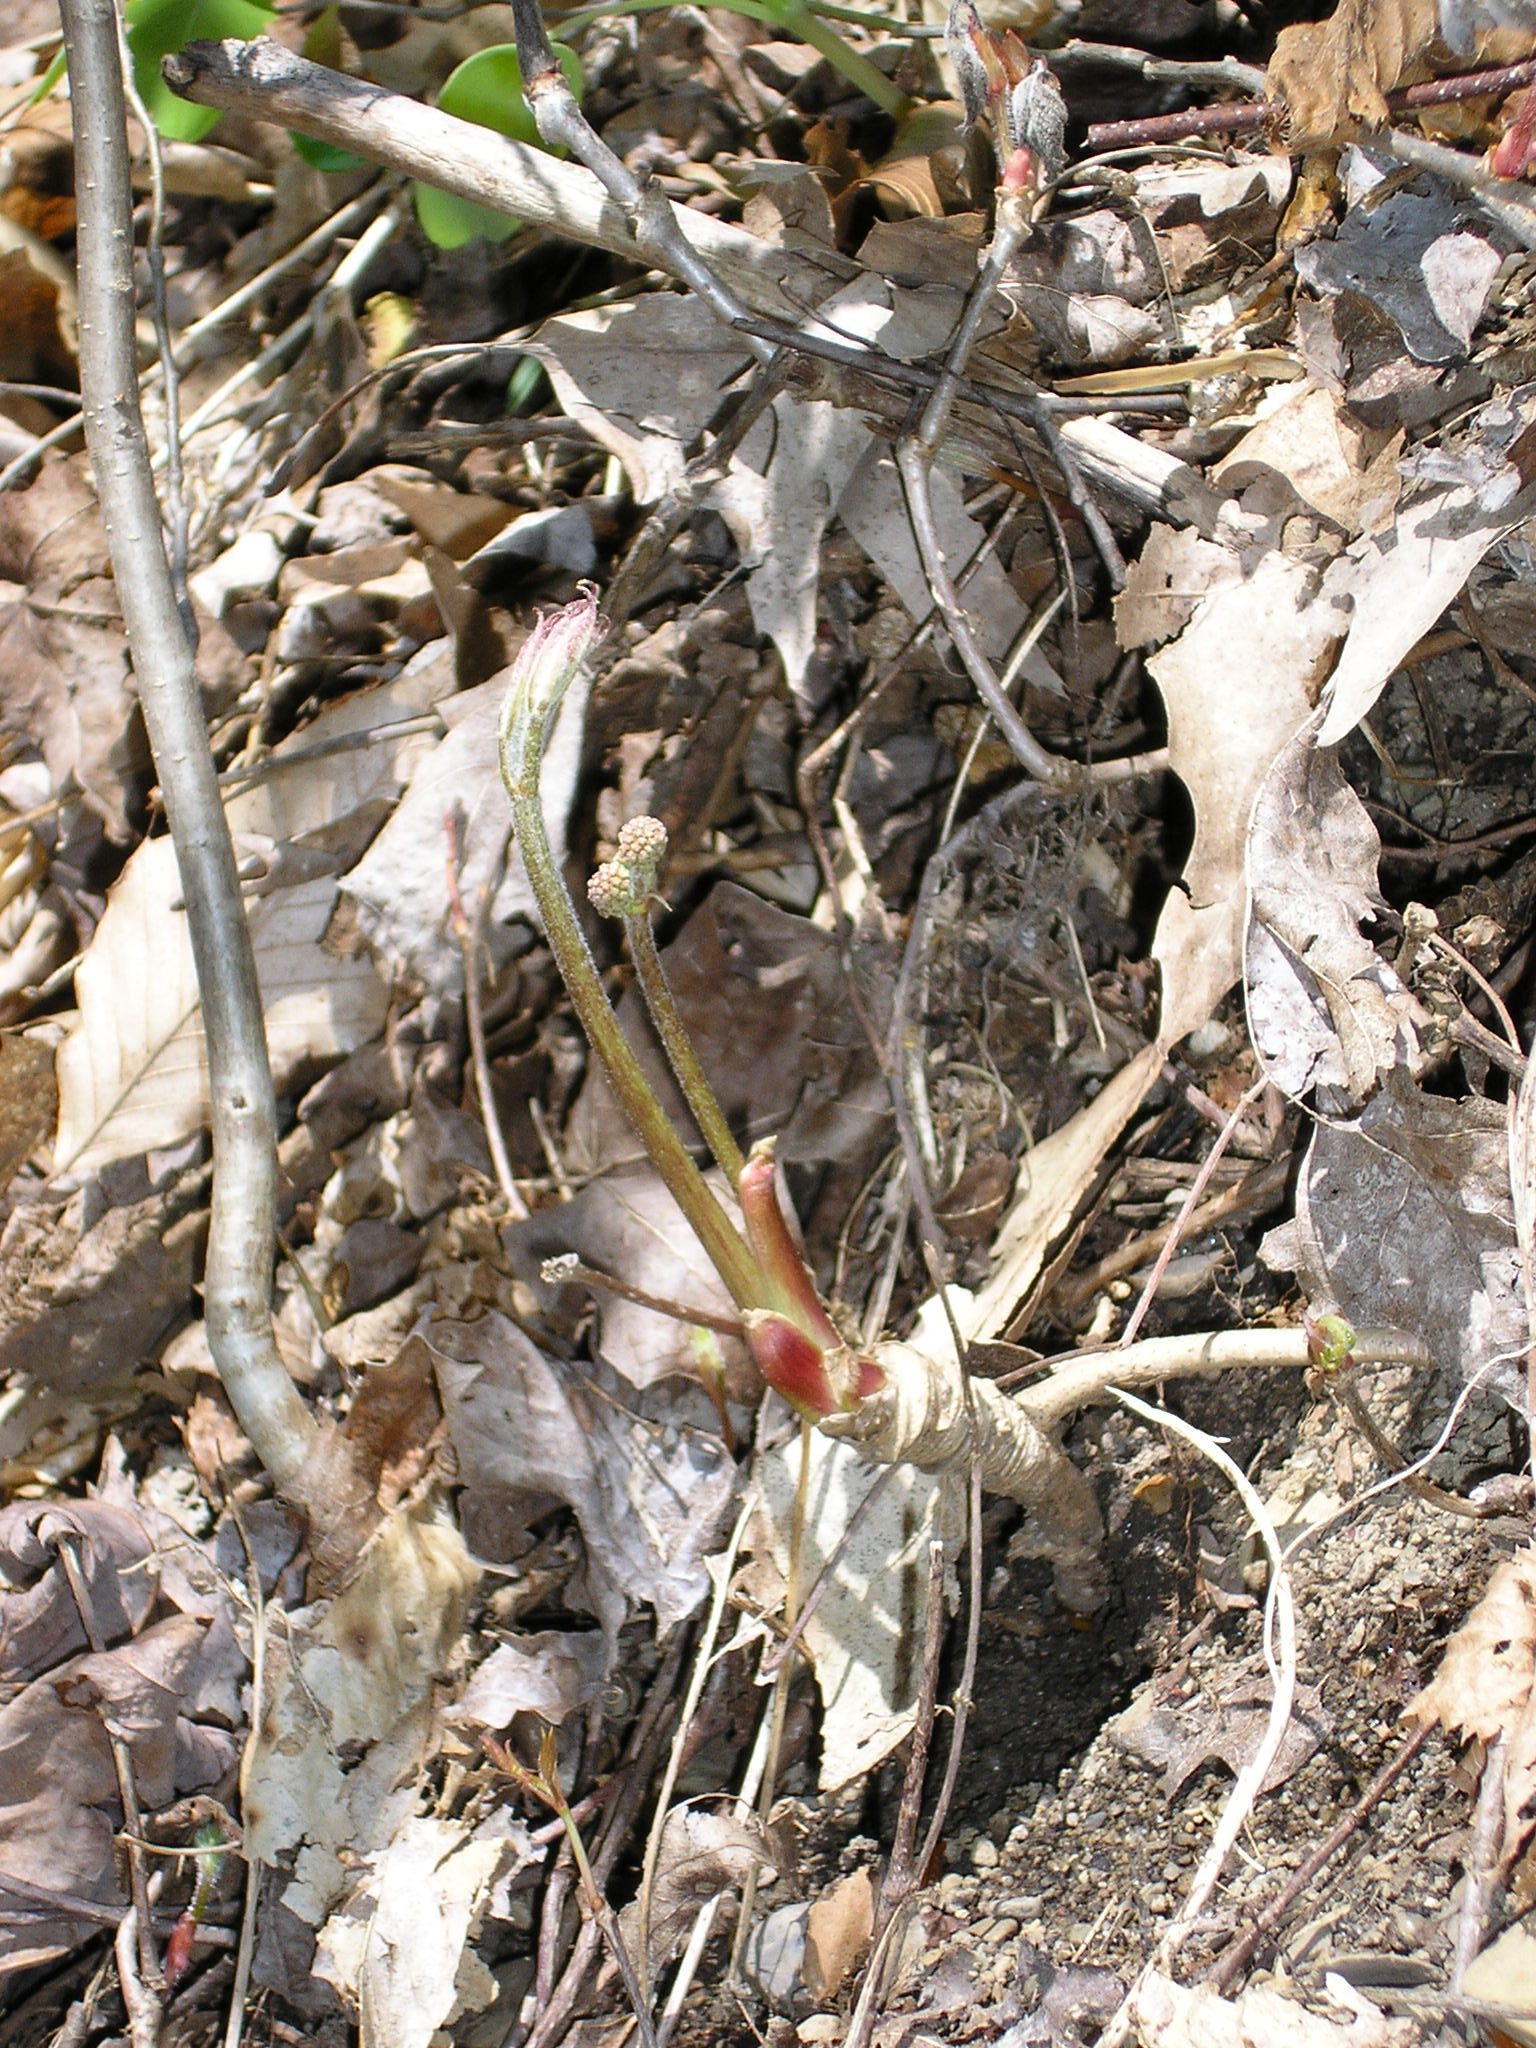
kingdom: Plantae
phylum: Tracheophyta
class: Magnoliopsida
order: Apiales
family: Araliaceae
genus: Aralia
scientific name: Aralia nudicaulis
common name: Wild sarsaparilla
